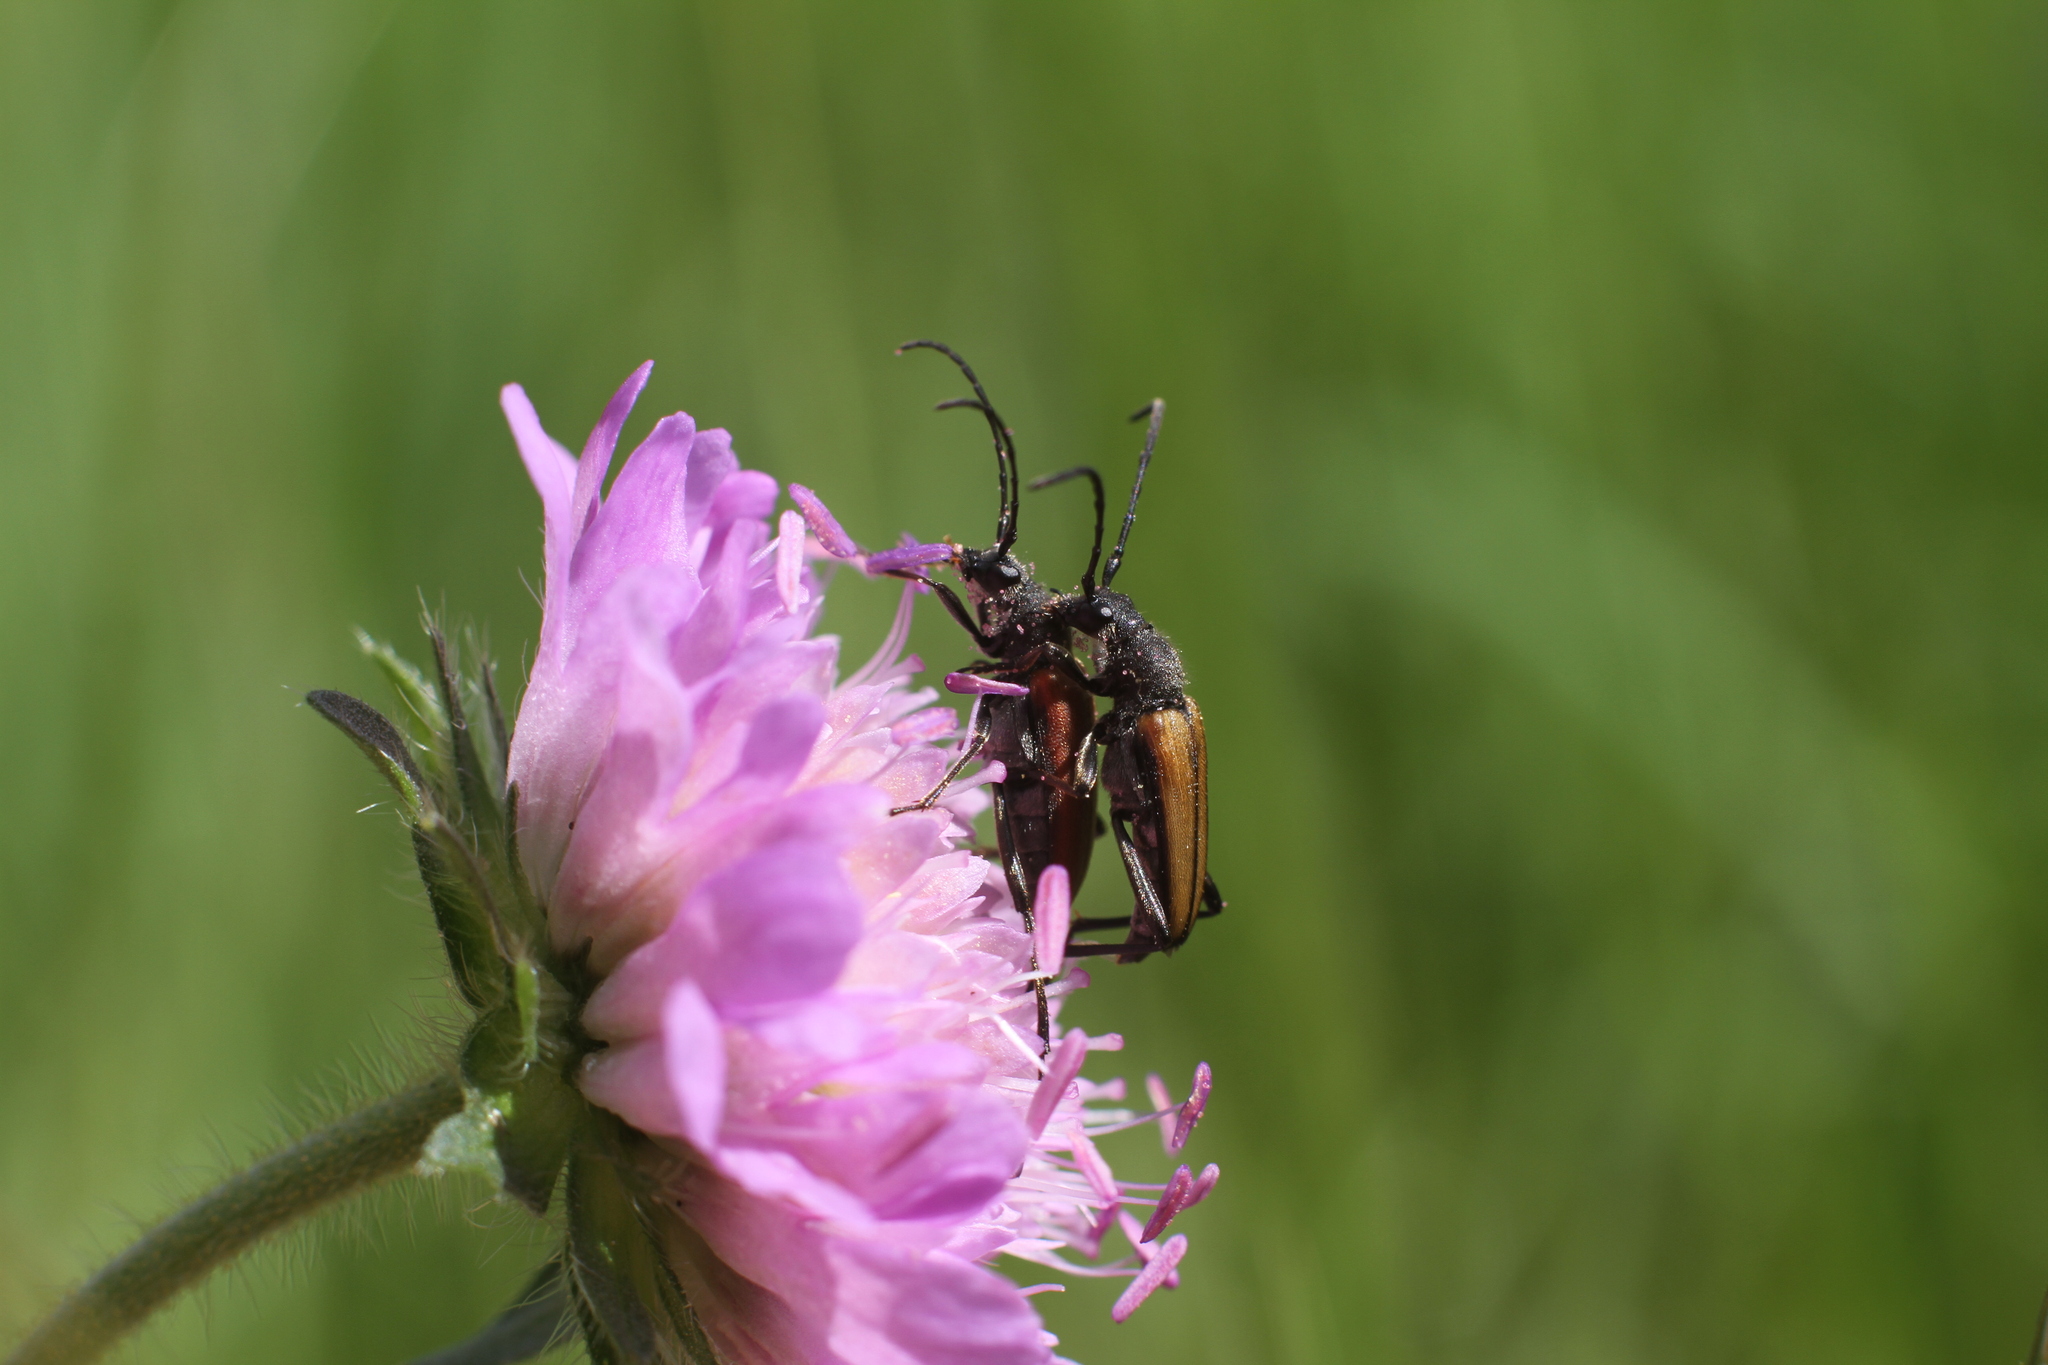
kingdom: Animalia
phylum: Arthropoda
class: Insecta
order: Coleoptera
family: Cerambycidae
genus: Anastrangalia
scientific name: Anastrangalia reyi
